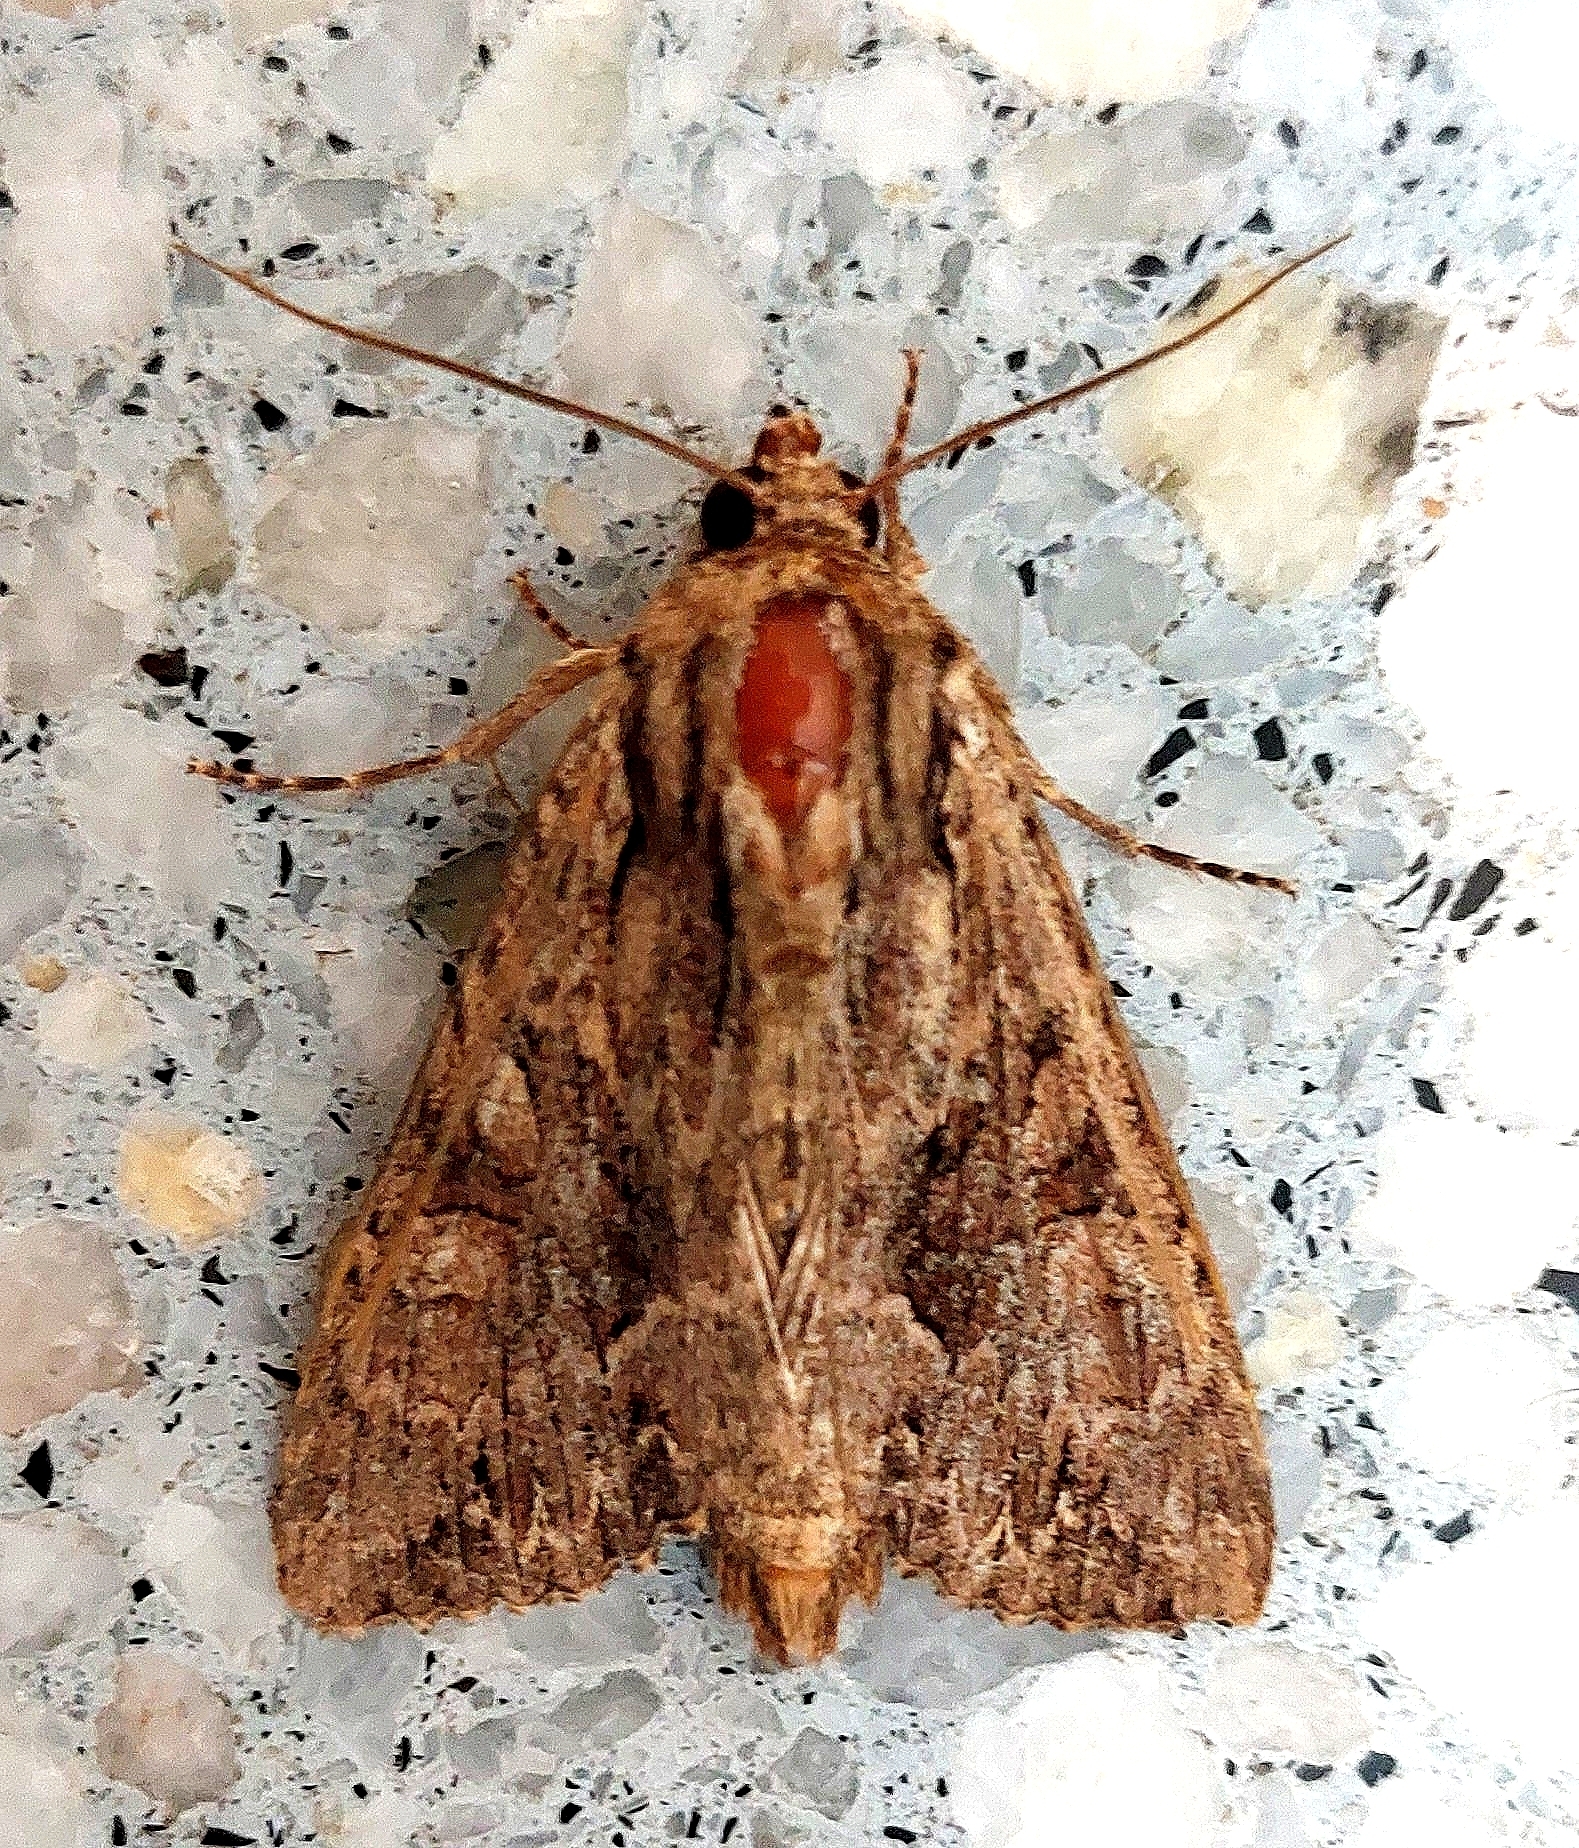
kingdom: Animalia
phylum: Arthropoda
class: Insecta
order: Lepidoptera
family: Noctuidae
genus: Apamea
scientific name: Apamea monoglypha
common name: Dark arches
